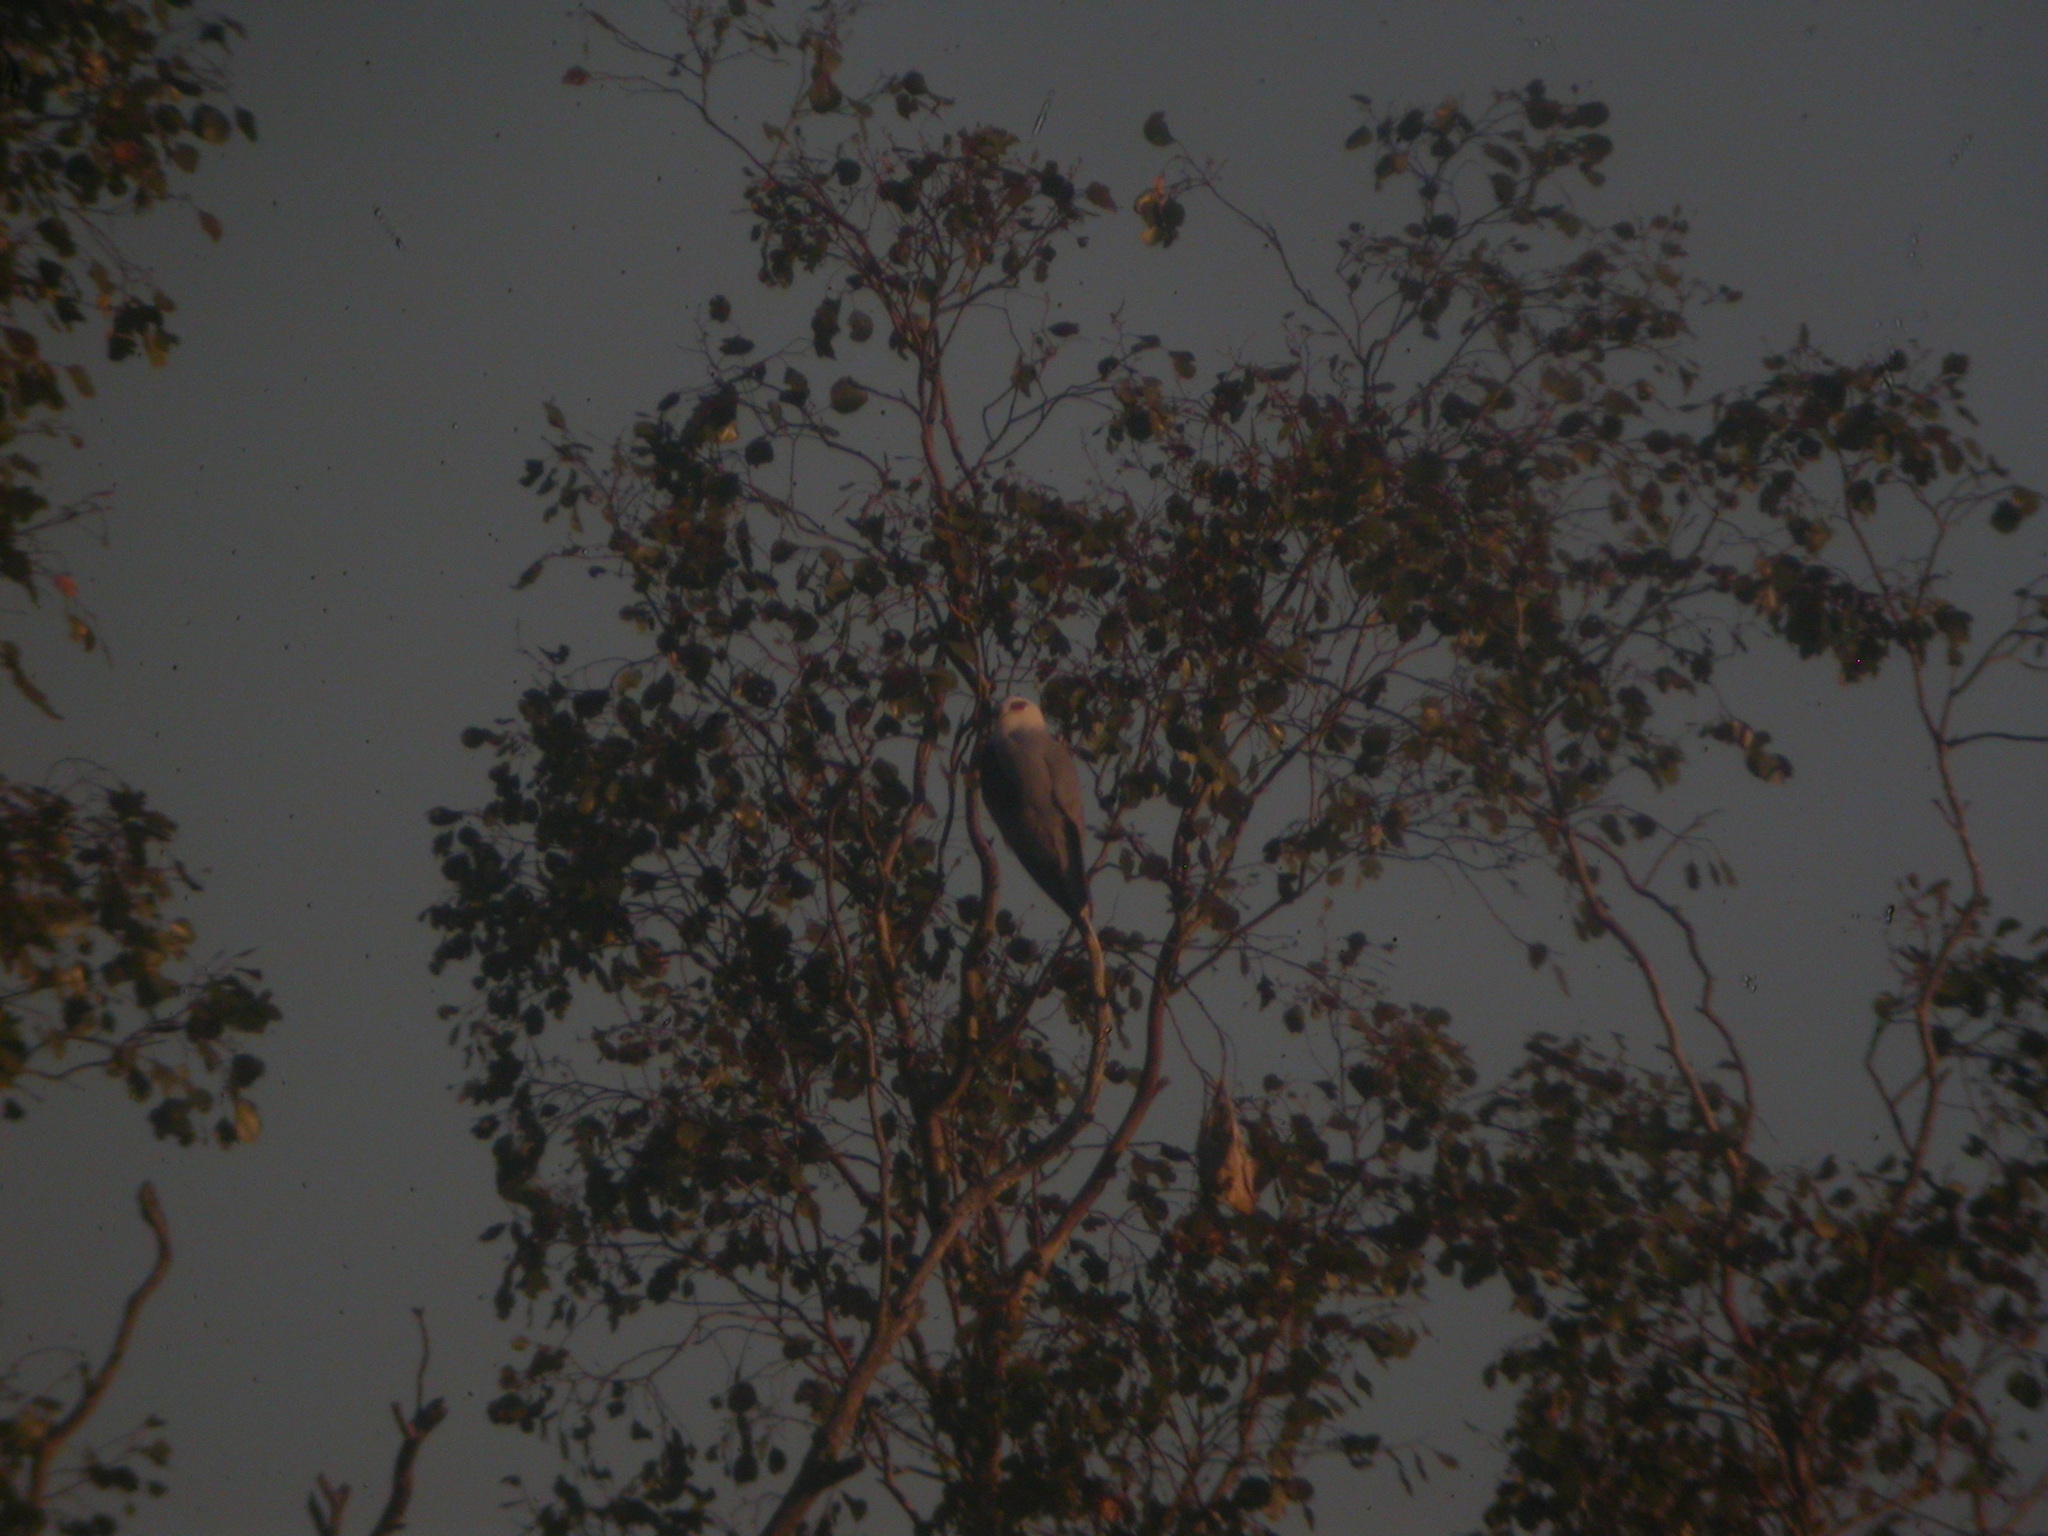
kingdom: Animalia
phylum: Chordata
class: Aves
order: Accipitriformes
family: Accipitridae
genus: Elanus
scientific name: Elanus axillaris
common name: Black-shouldered kite
